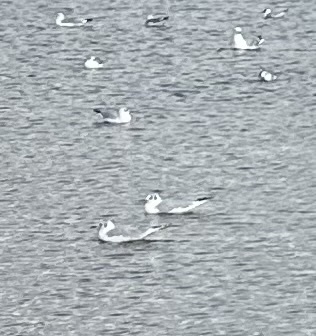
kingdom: Animalia
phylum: Chordata
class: Aves
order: Charadriiformes
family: Laridae
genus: Chroicocephalus
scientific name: Chroicocephalus ridibundus
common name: Black-headed gull
